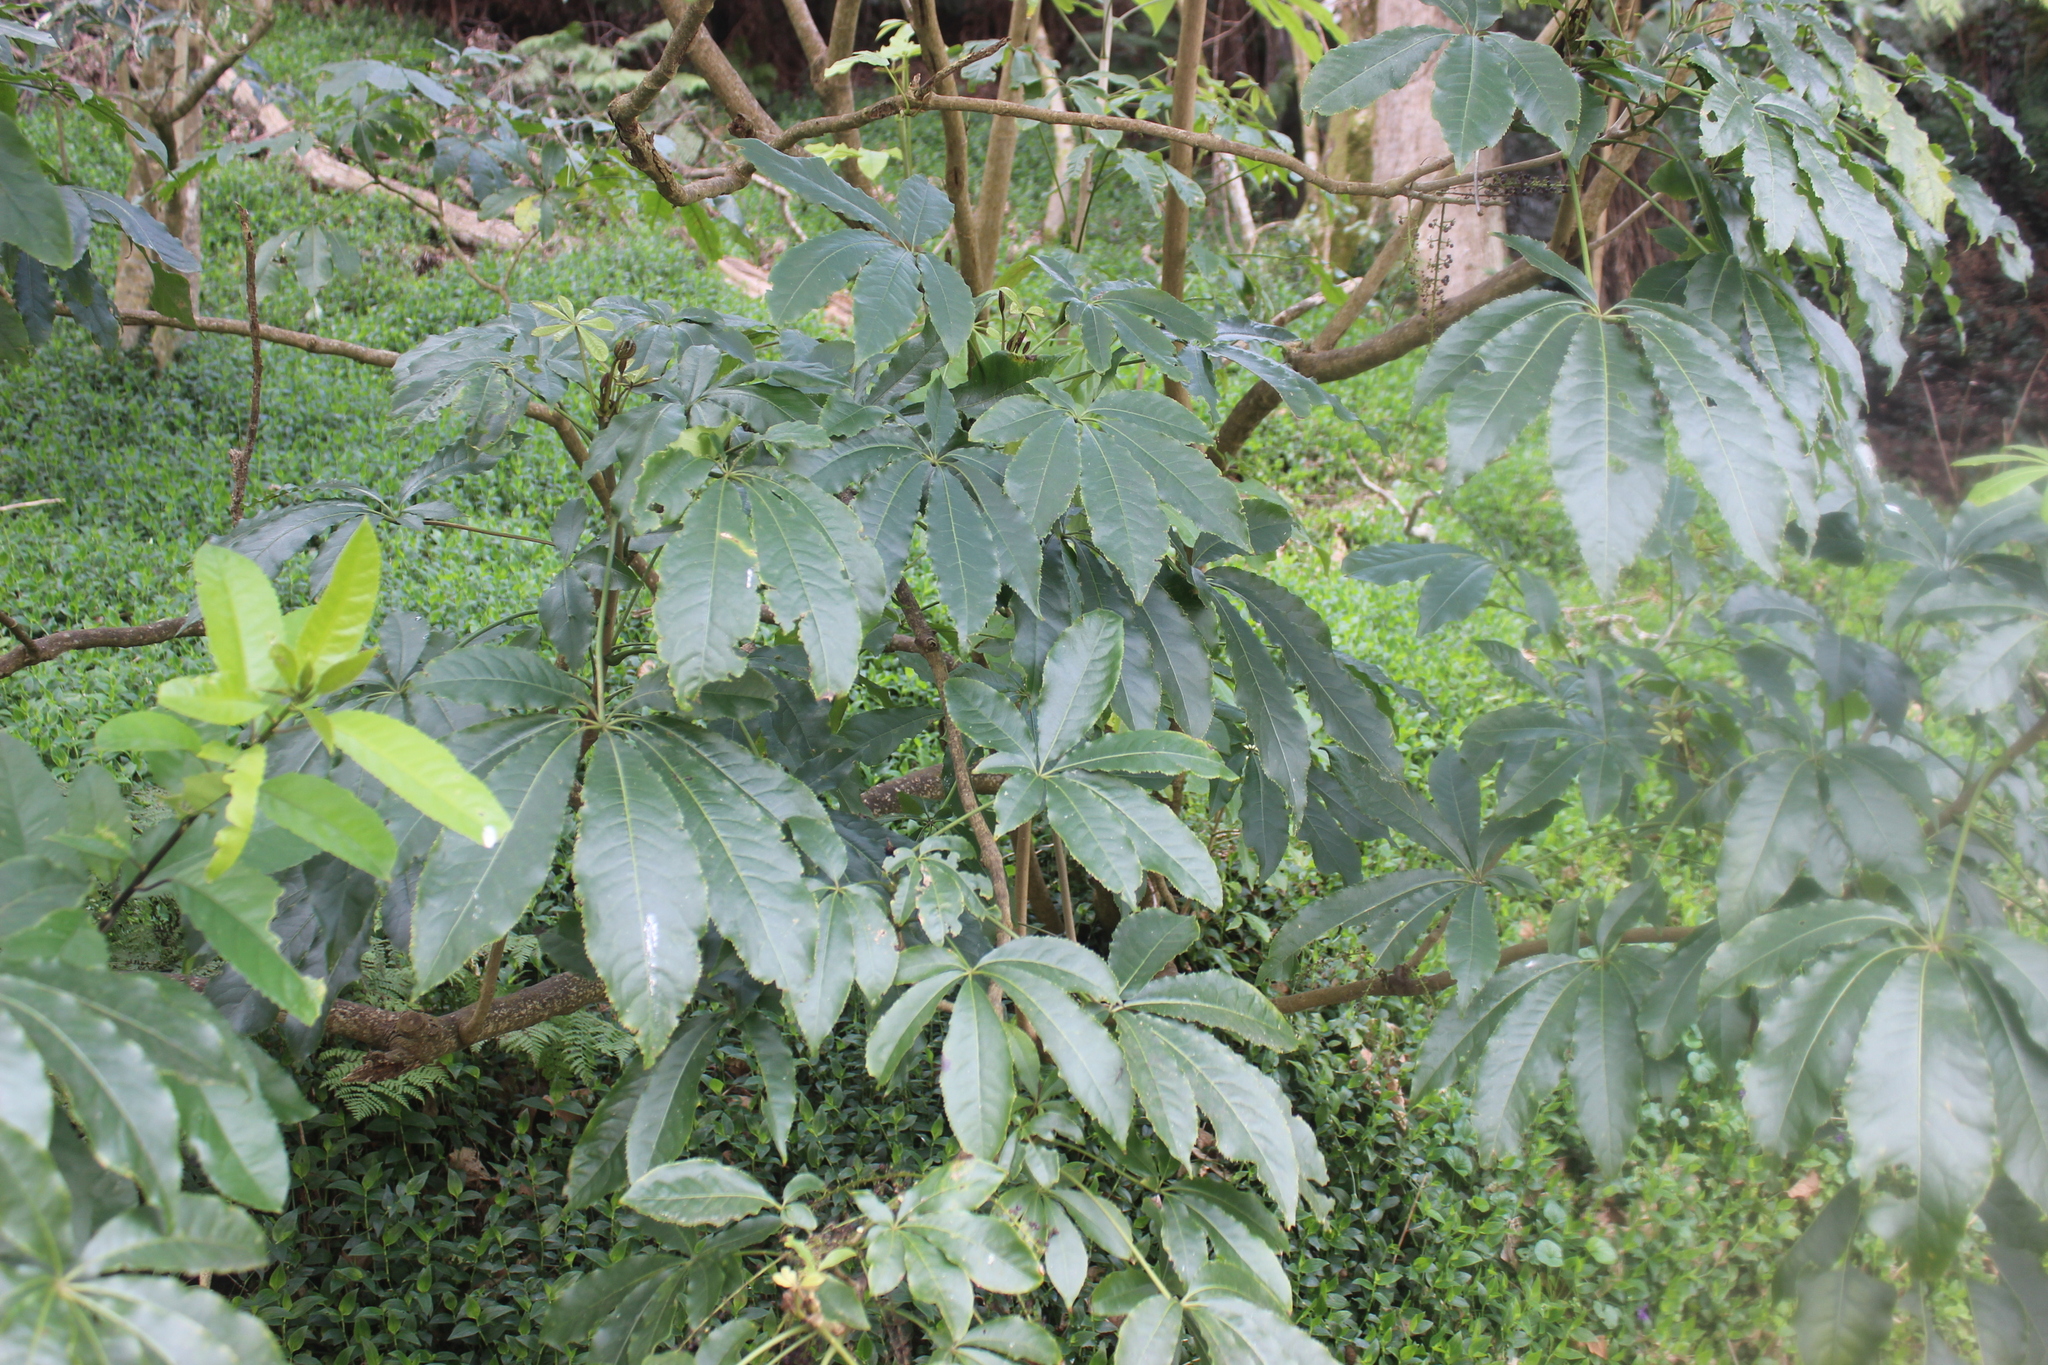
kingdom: Plantae
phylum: Tracheophyta
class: Magnoliopsida
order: Apiales
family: Araliaceae
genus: Schefflera
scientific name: Schefflera digitata
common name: Pate
